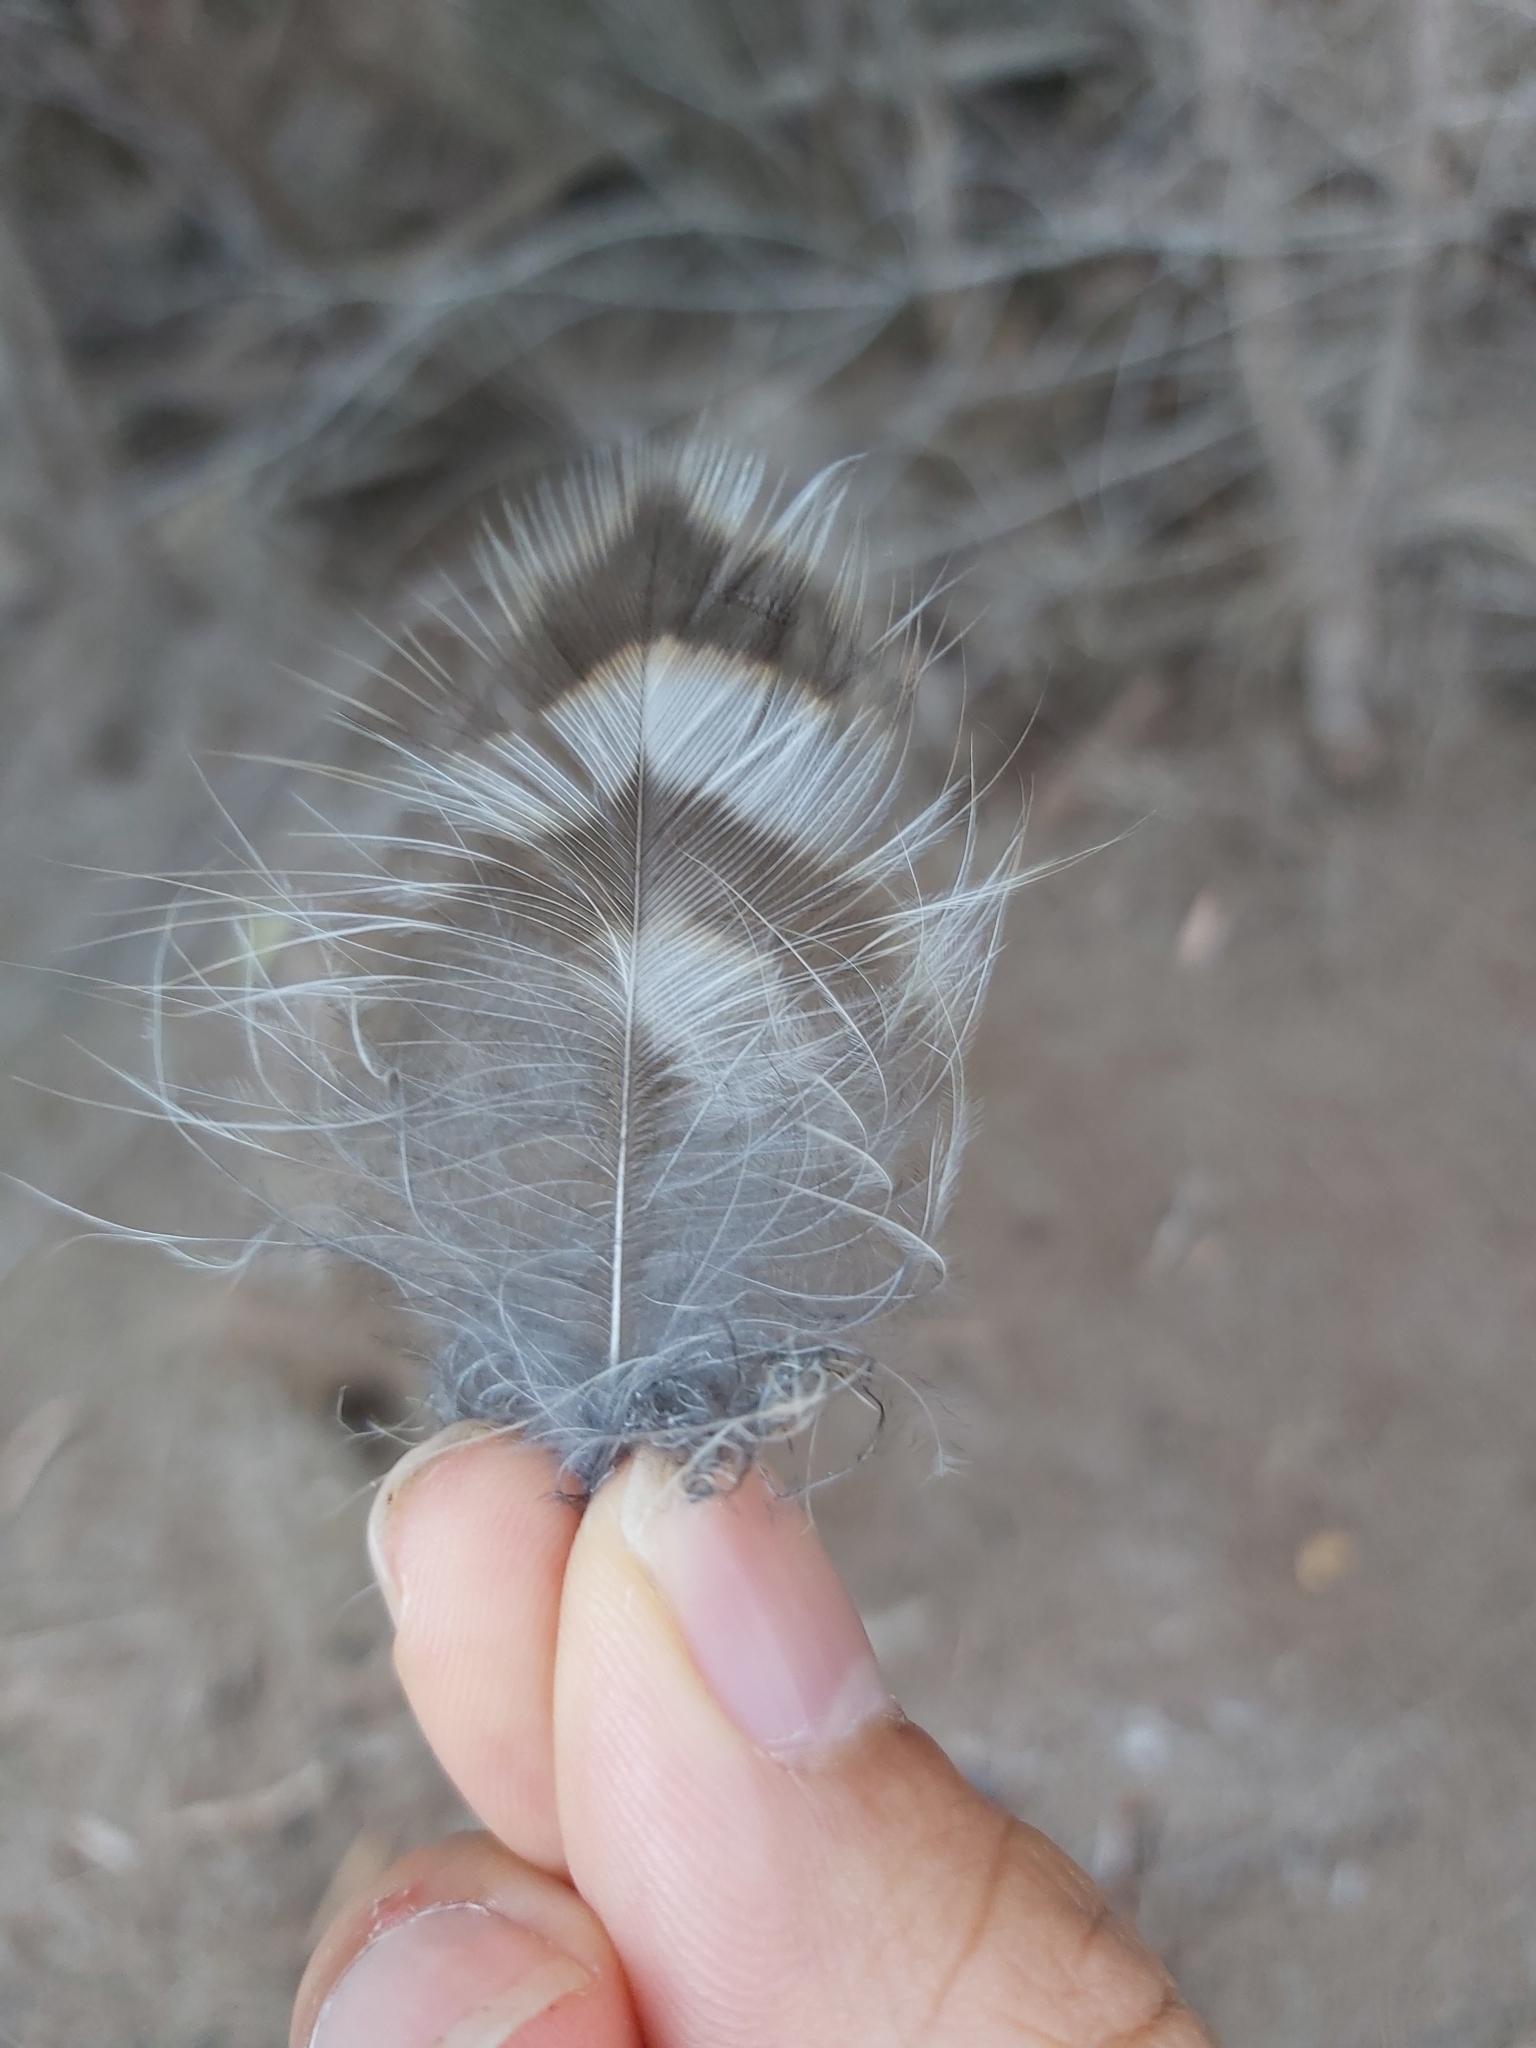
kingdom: Animalia
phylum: Chordata
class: Aves
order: Strigiformes
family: Strigidae
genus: Ninox
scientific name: Ninox strenua
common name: Powerful owl
